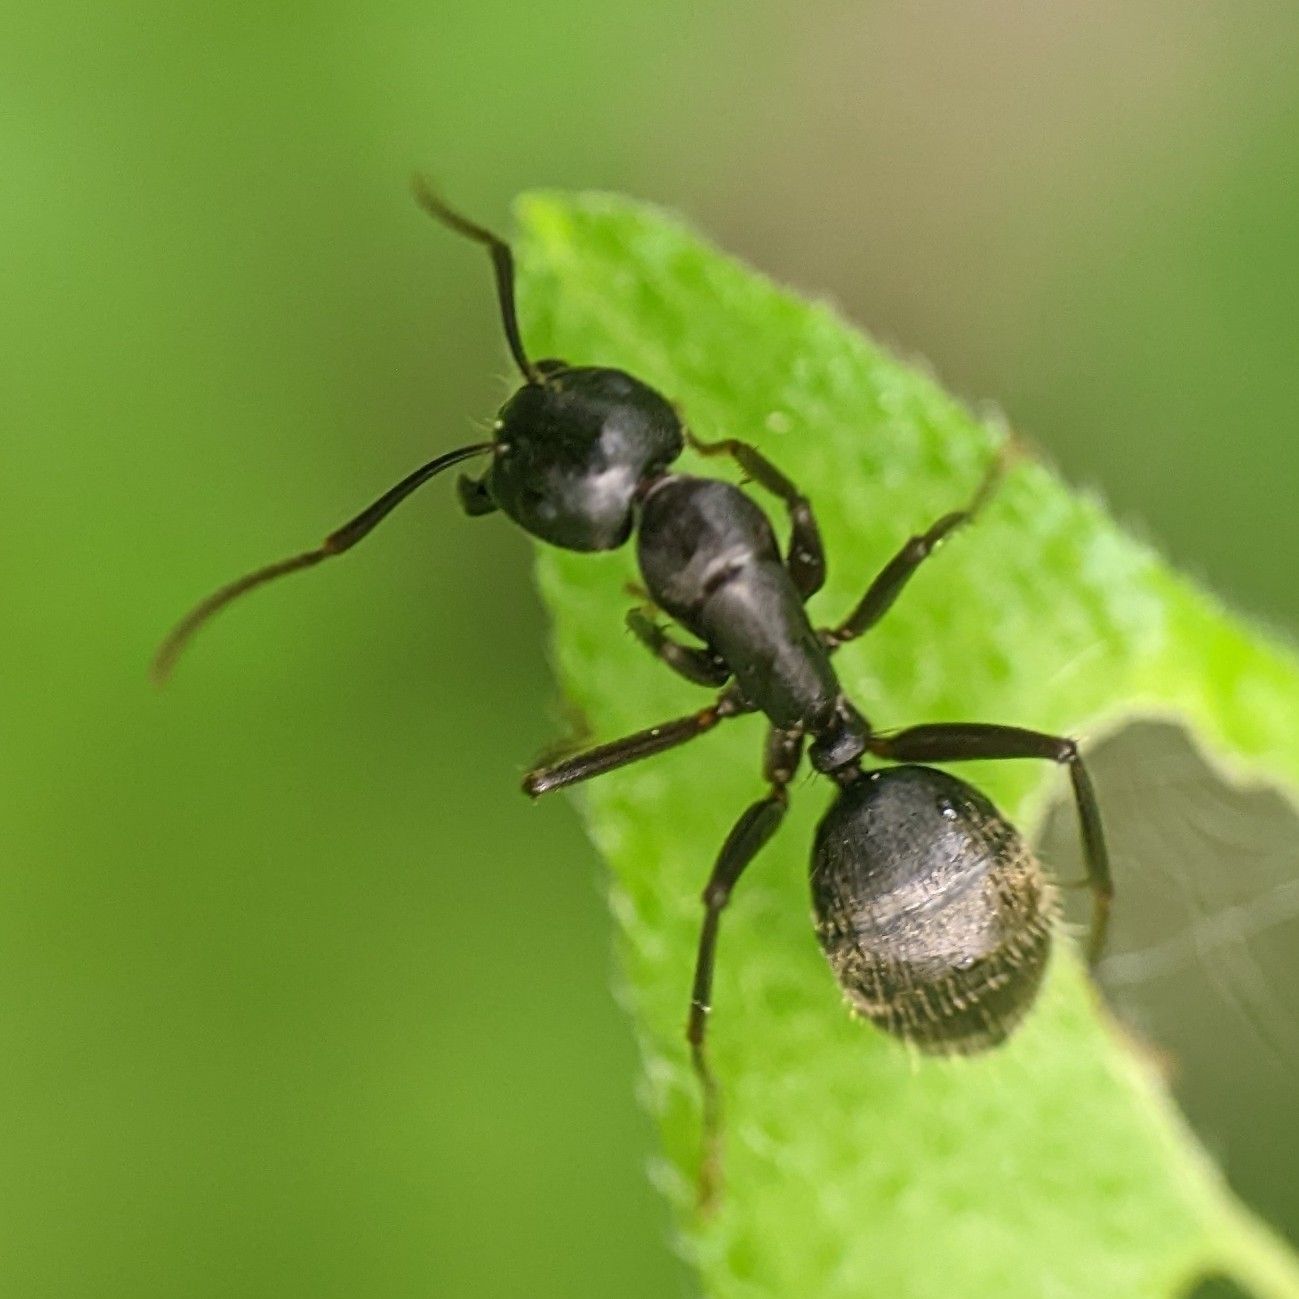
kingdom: Animalia
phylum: Arthropoda
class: Insecta
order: Hymenoptera
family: Formicidae
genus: Camponotus
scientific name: Camponotus pennsylvanicus
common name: Black carpenter ant
